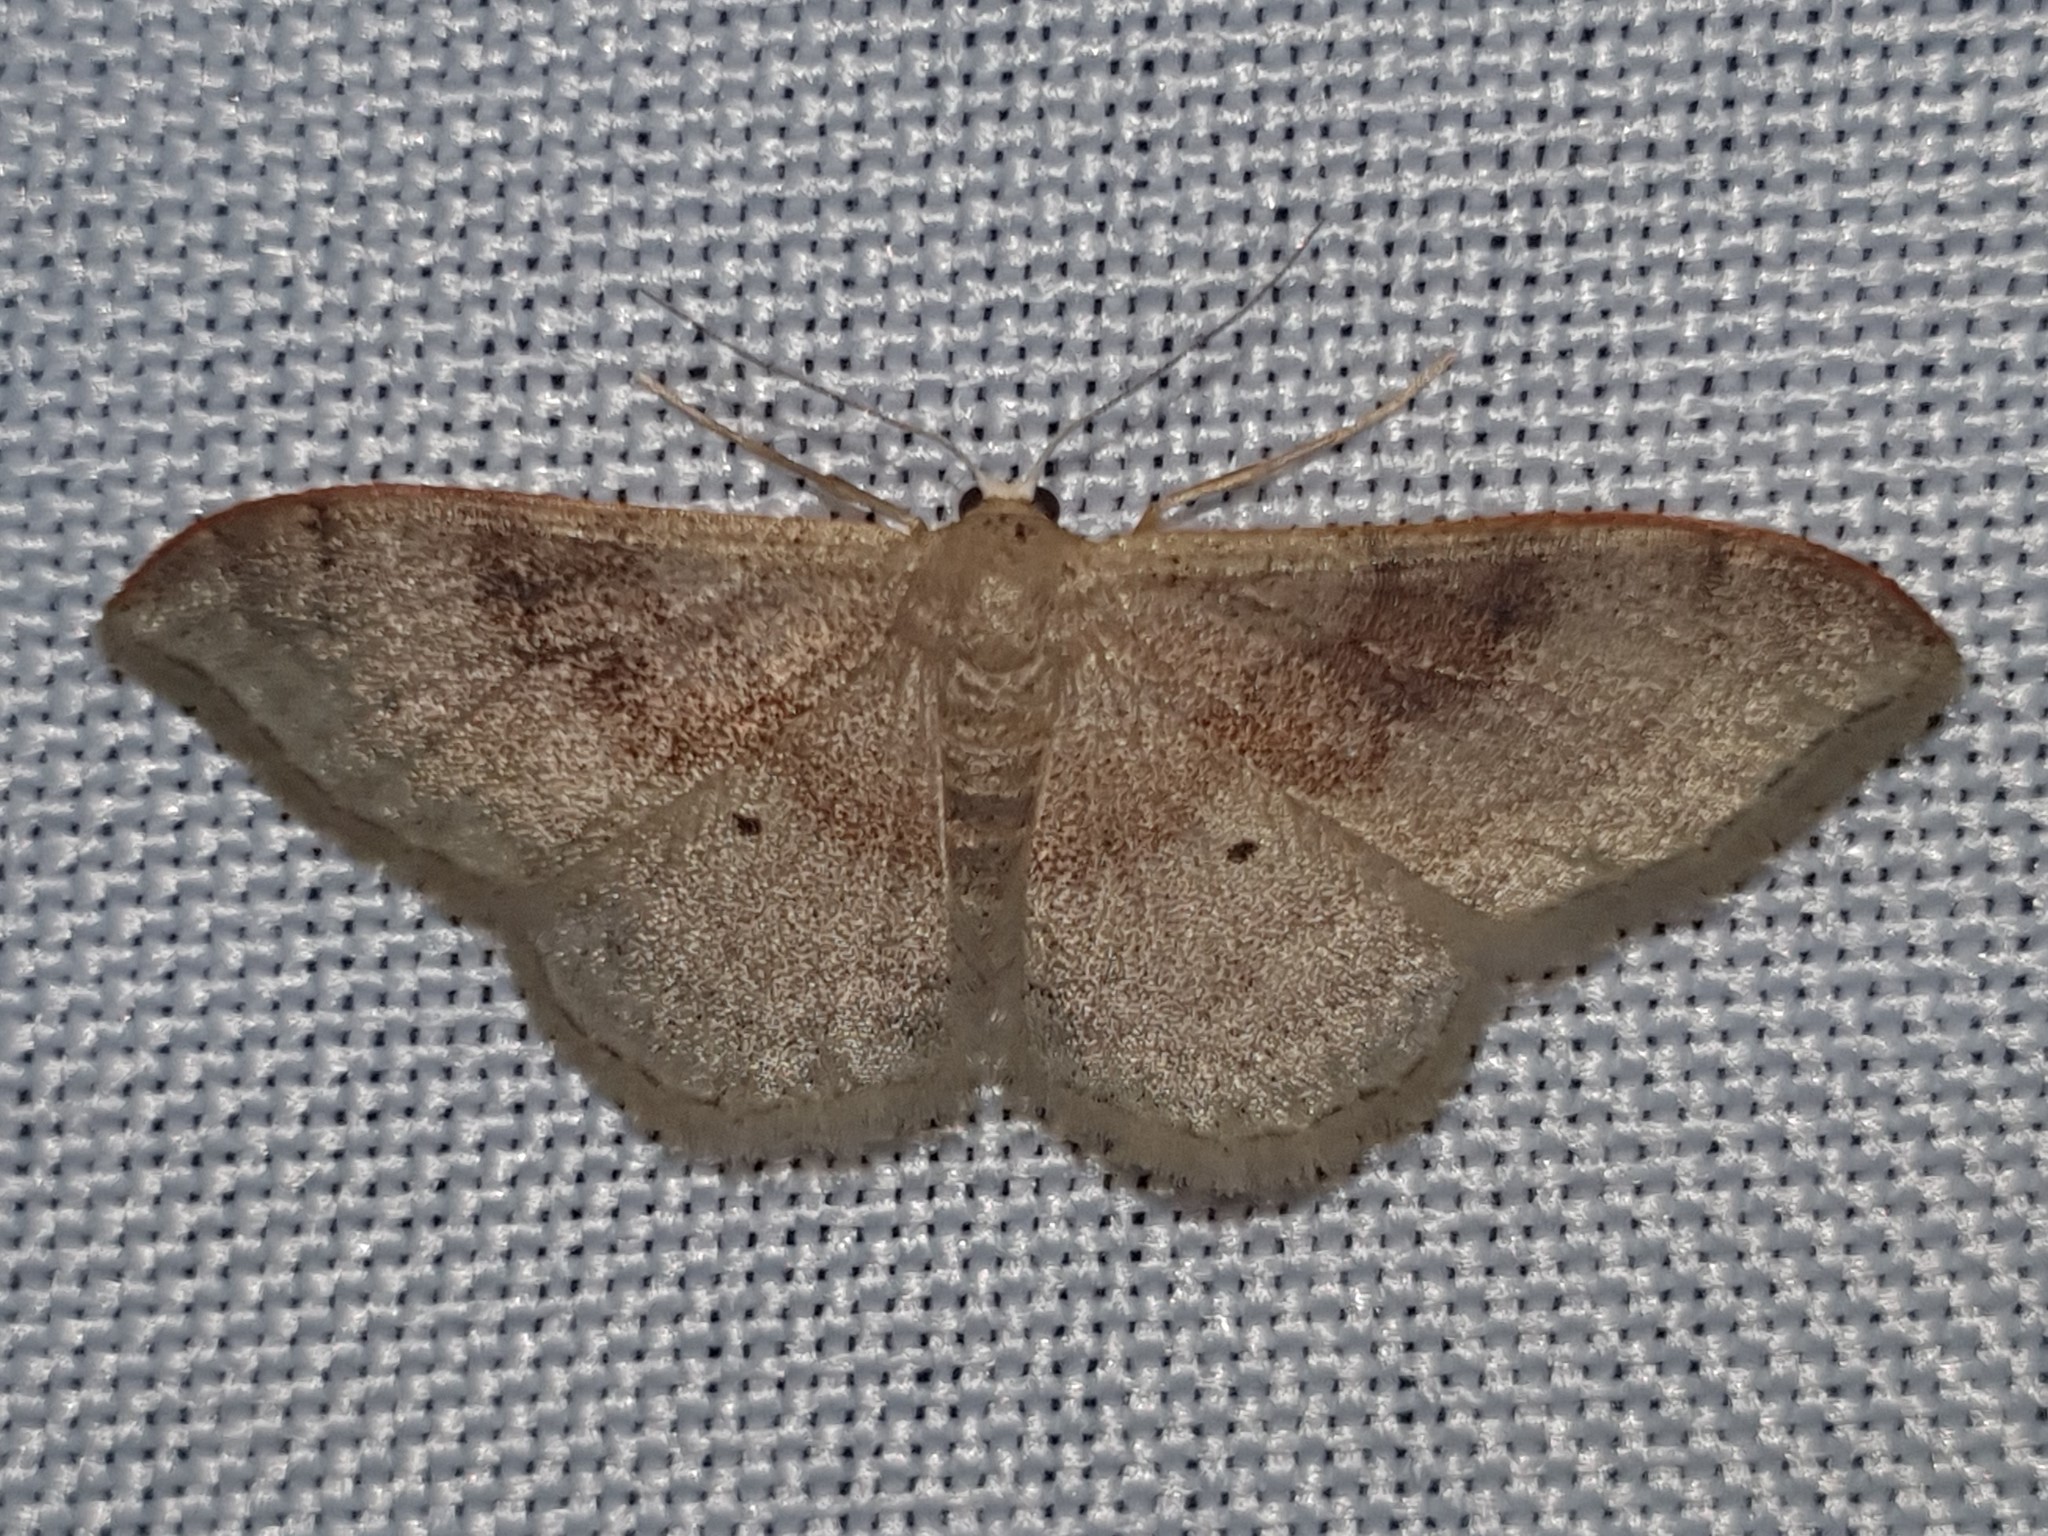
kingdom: Animalia
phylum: Arthropoda
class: Insecta
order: Lepidoptera
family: Geometridae
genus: Idaea
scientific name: Idaea degeneraria
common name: Portland ribbon wave
